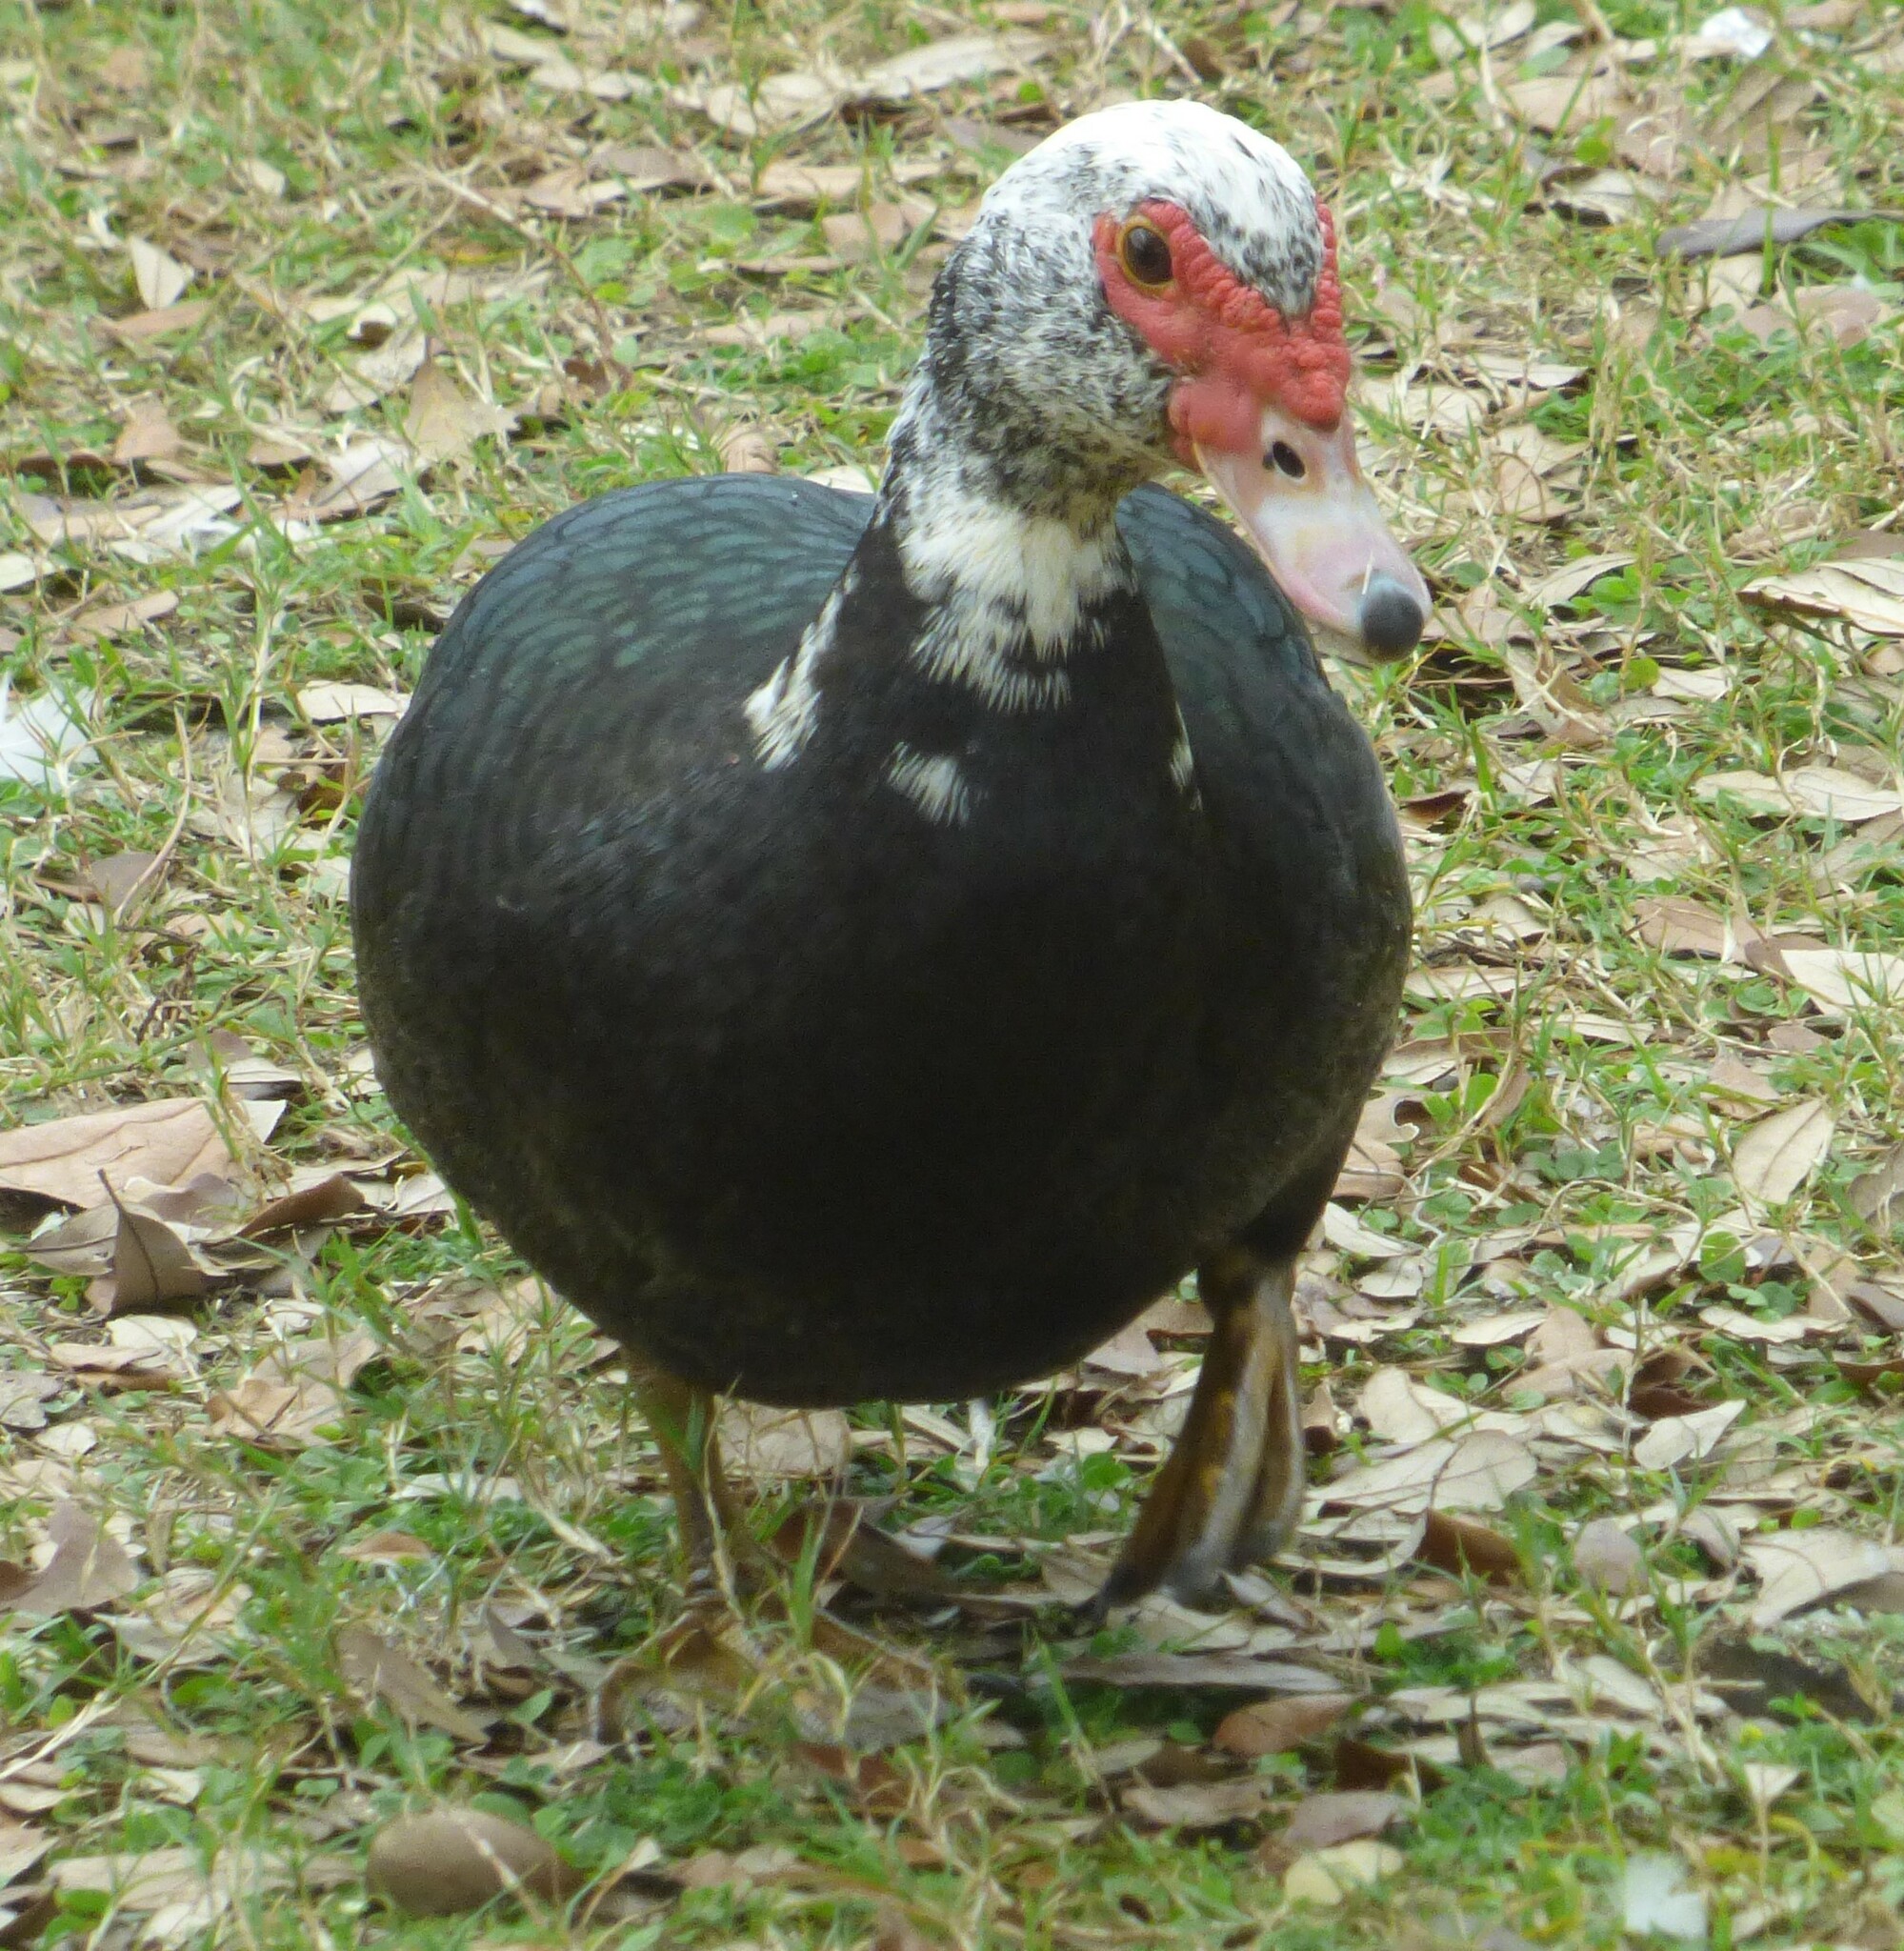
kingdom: Animalia
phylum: Chordata
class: Aves
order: Anseriformes
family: Anatidae
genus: Cairina
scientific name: Cairina moschata
